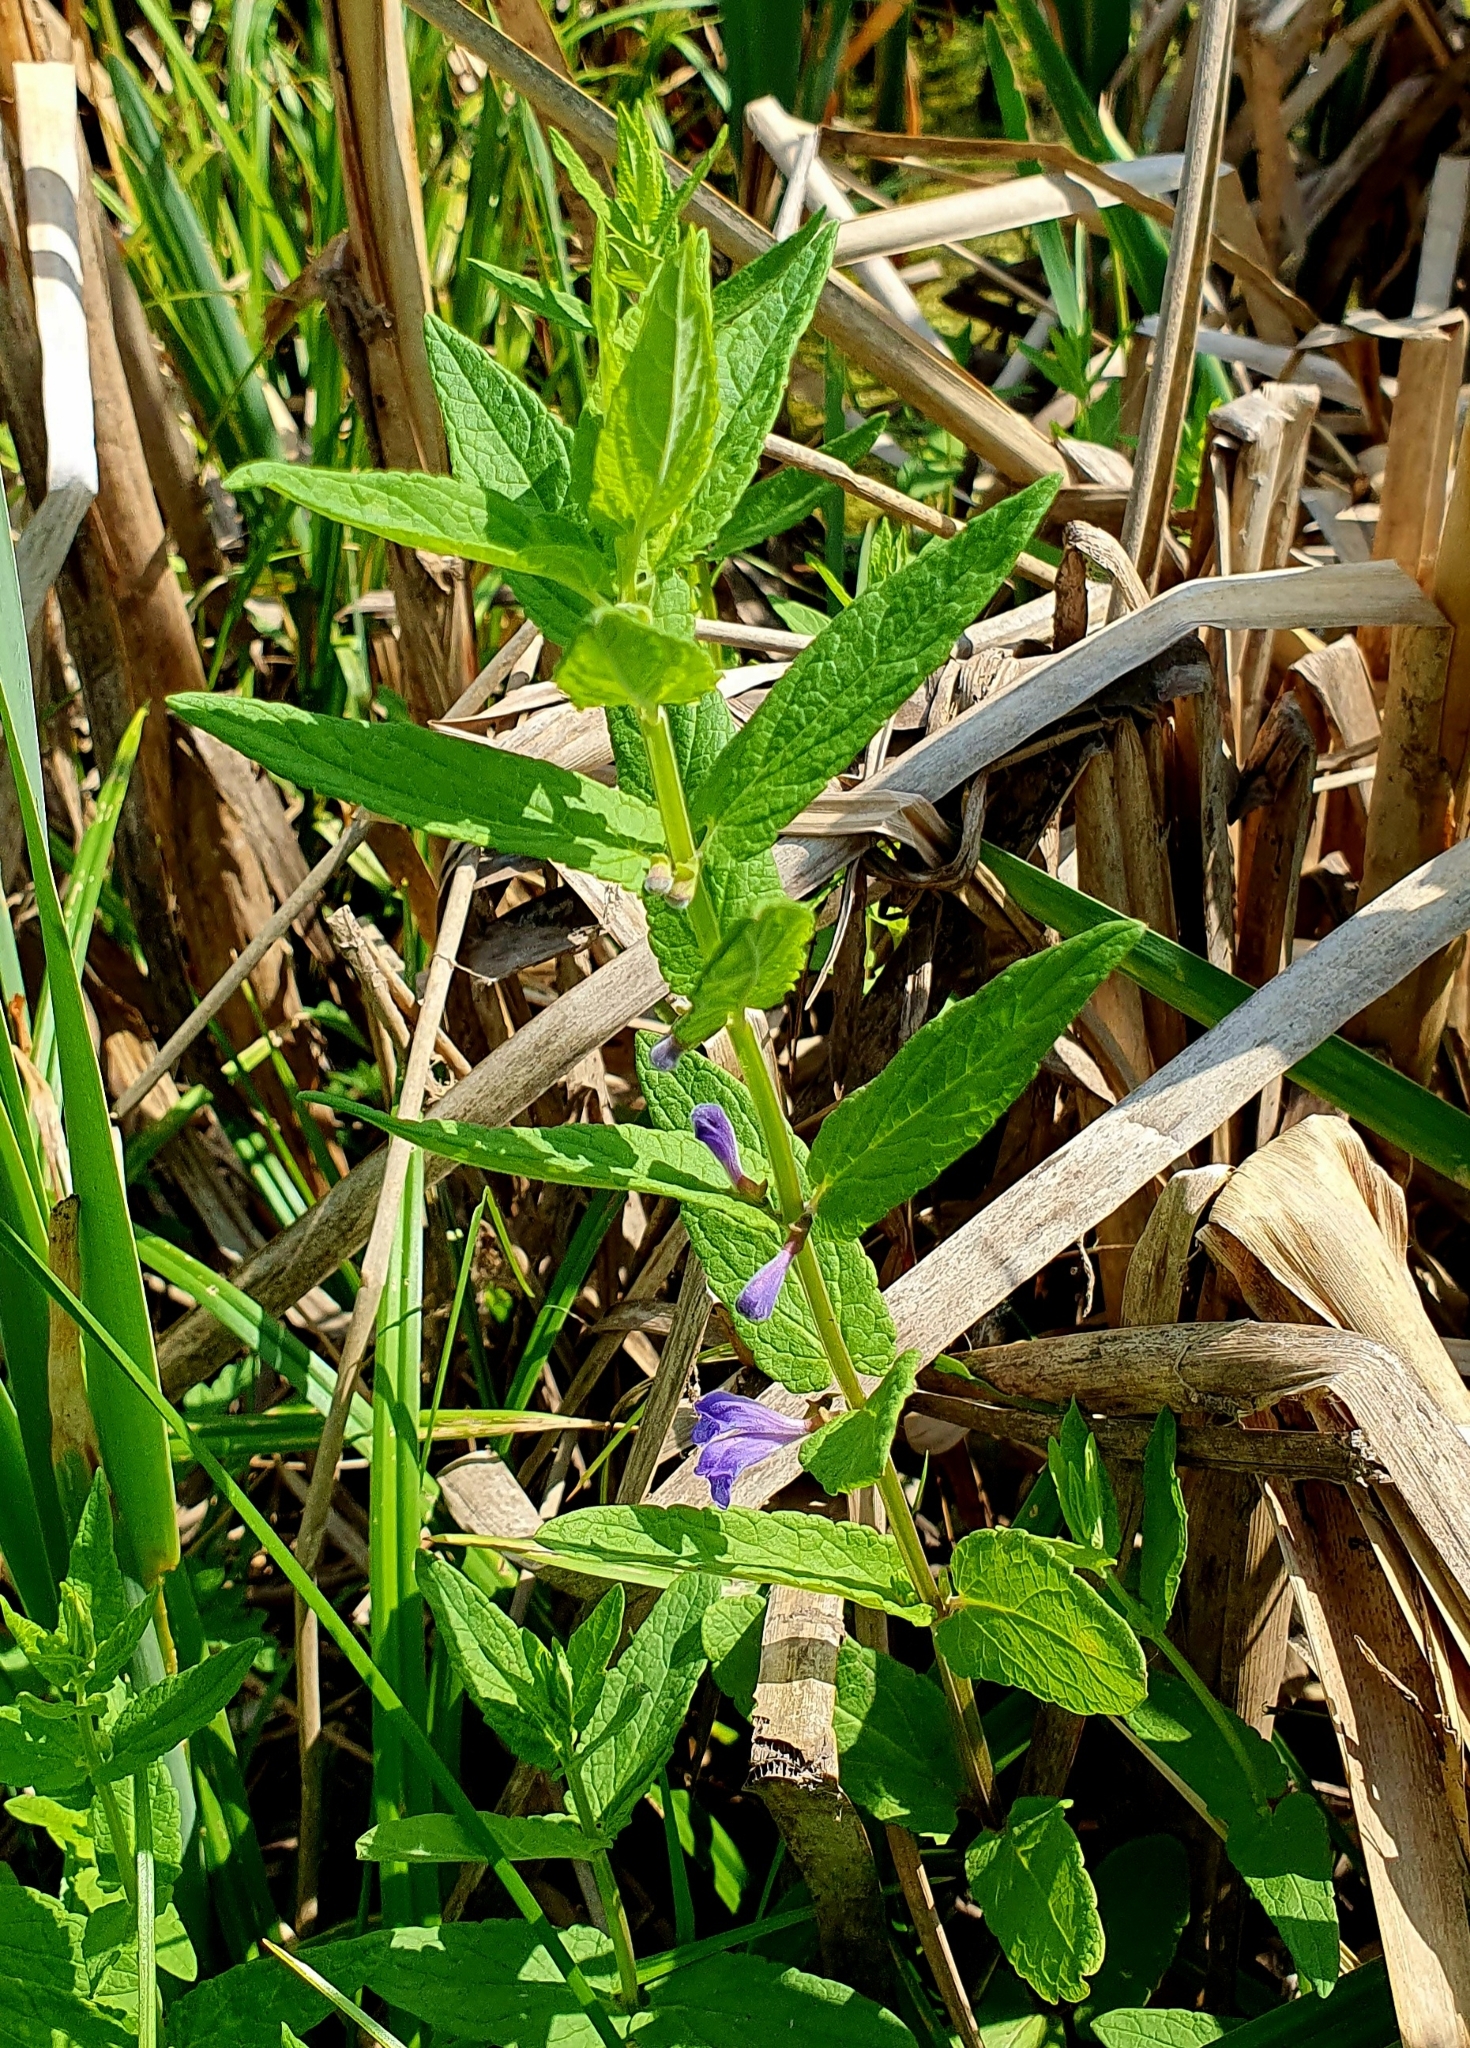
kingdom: Plantae
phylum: Tracheophyta
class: Magnoliopsida
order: Lamiales
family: Lamiaceae
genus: Scutellaria
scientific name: Scutellaria galericulata
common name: Skullcap
